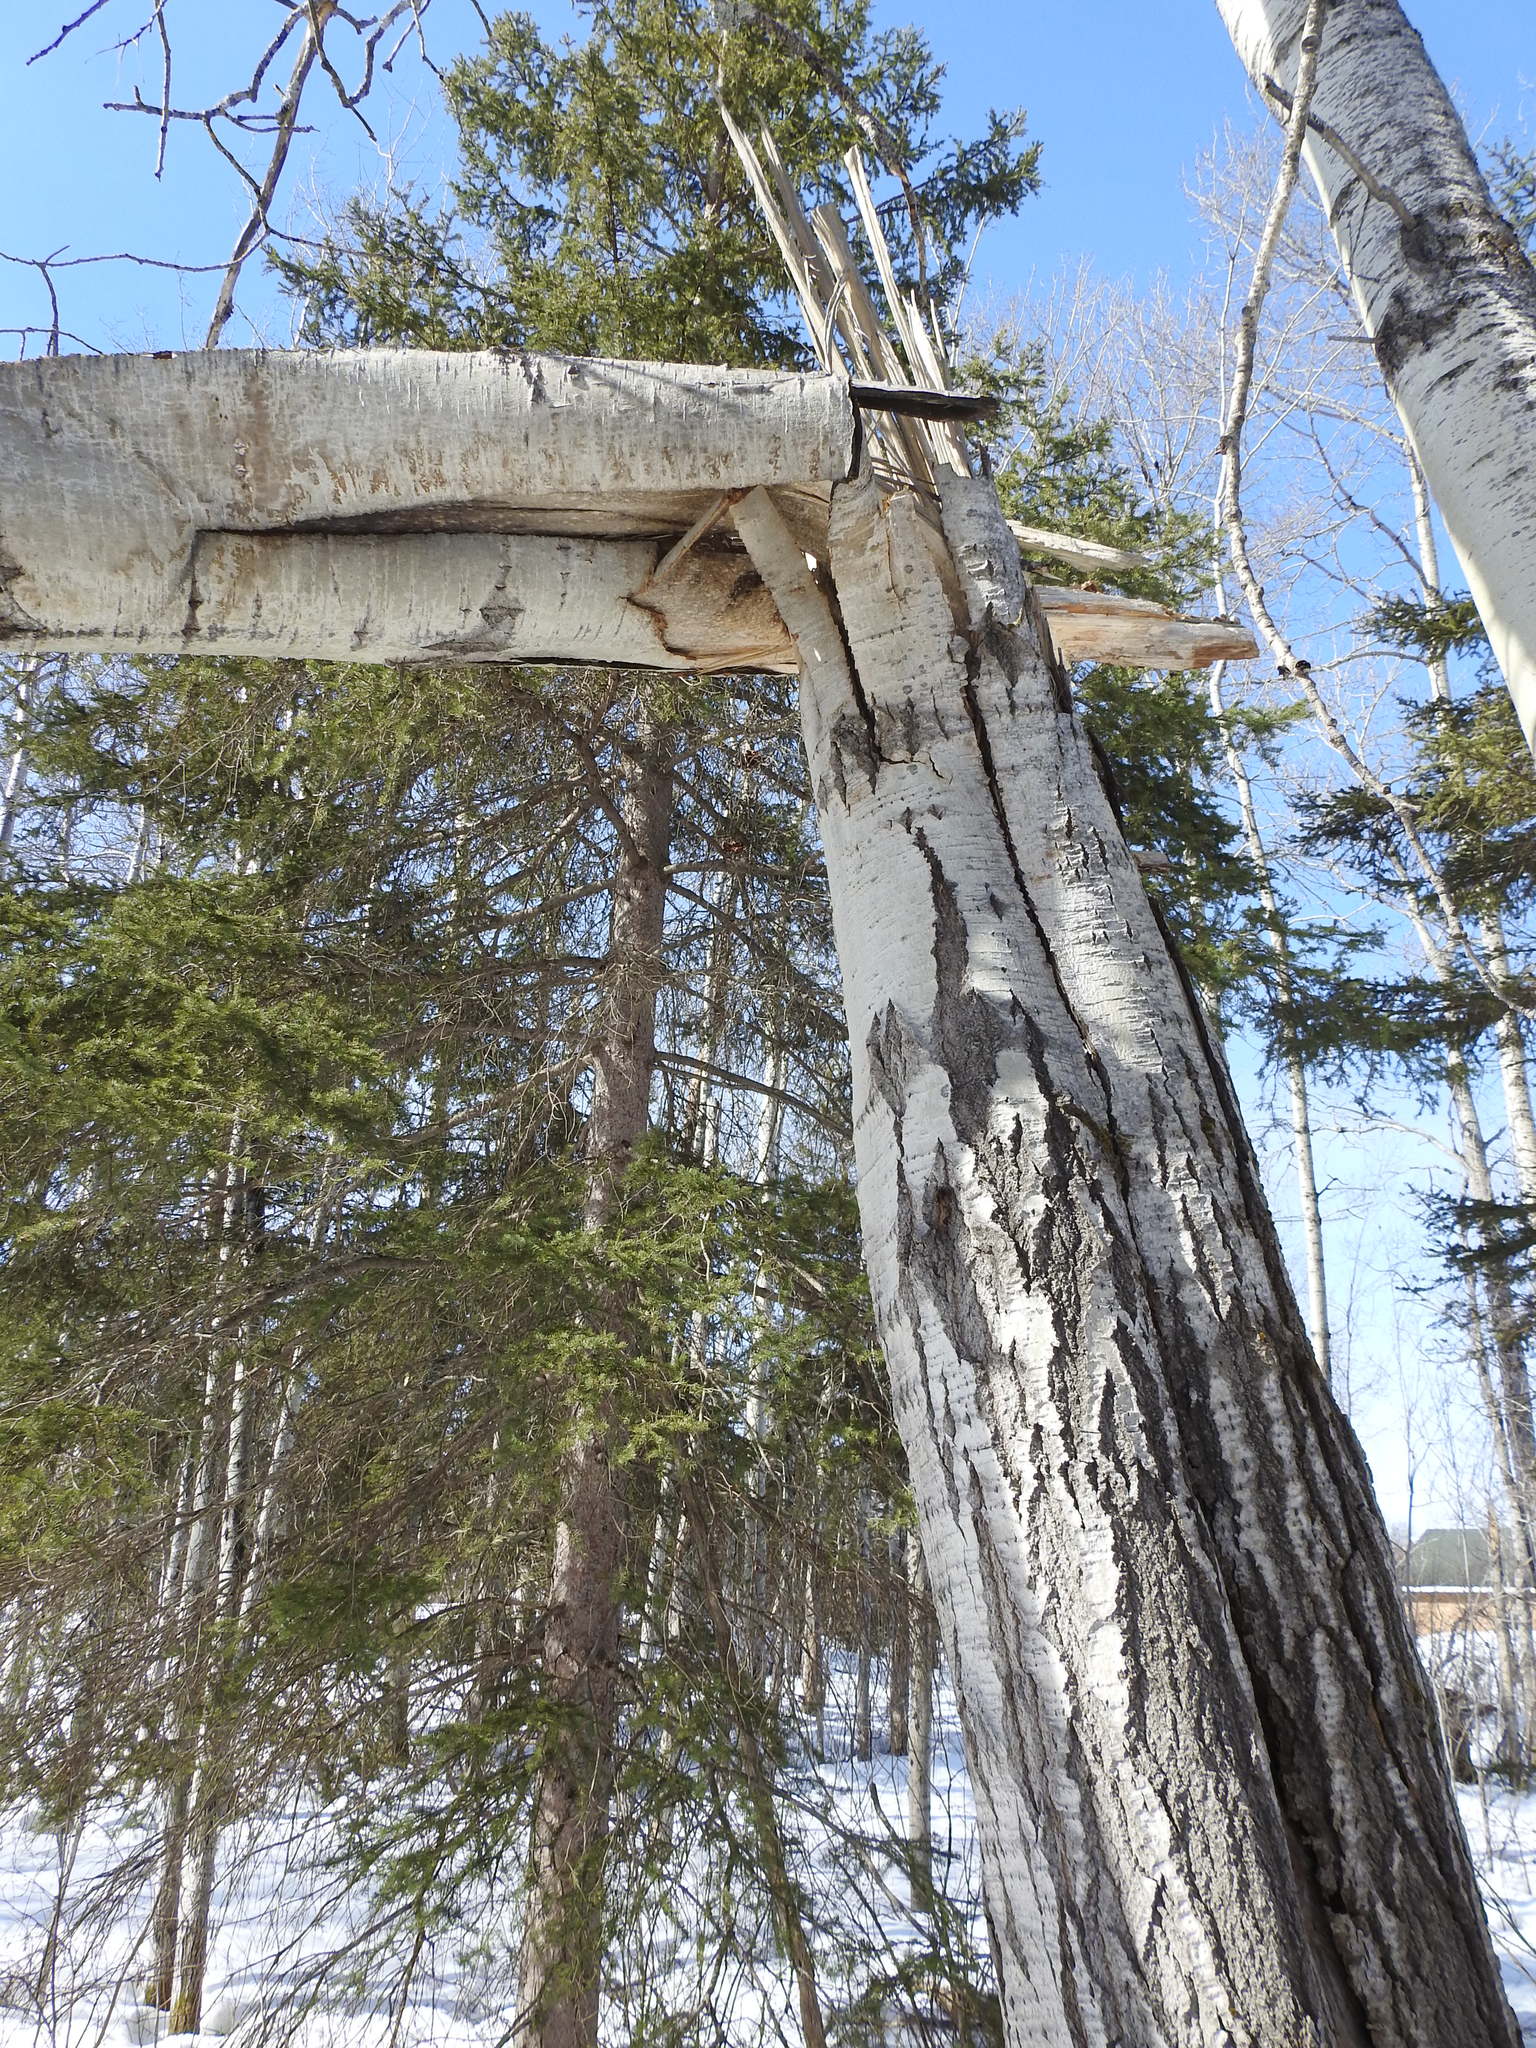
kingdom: Plantae
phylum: Tracheophyta
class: Magnoliopsida
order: Malpighiales
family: Salicaceae
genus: Populus
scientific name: Populus tremuloides
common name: Quaking aspen
